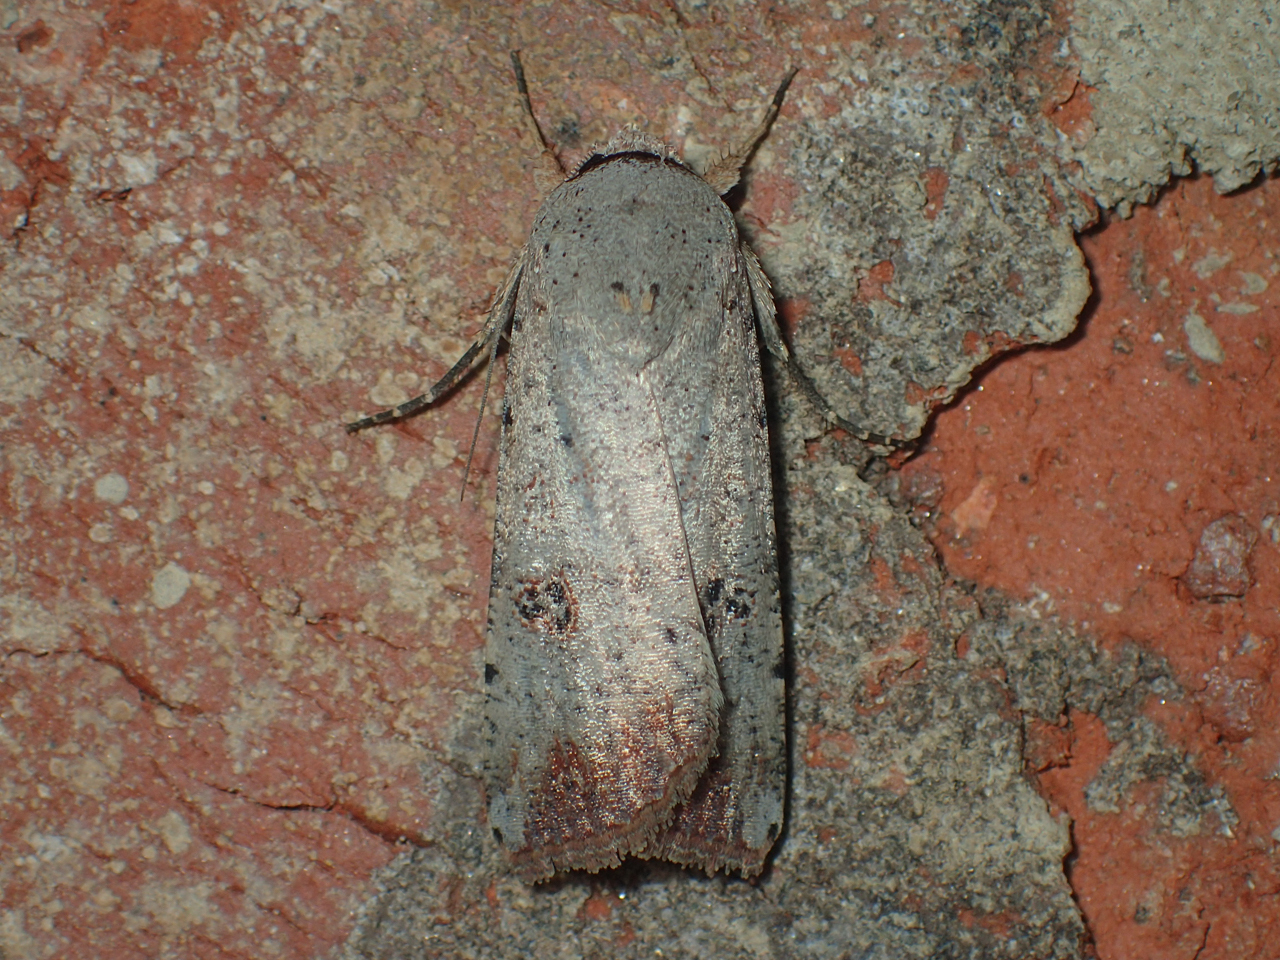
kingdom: Animalia
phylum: Arthropoda
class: Insecta
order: Lepidoptera
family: Noctuidae
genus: Anicla
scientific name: Anicla infecta
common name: Green cutworm
